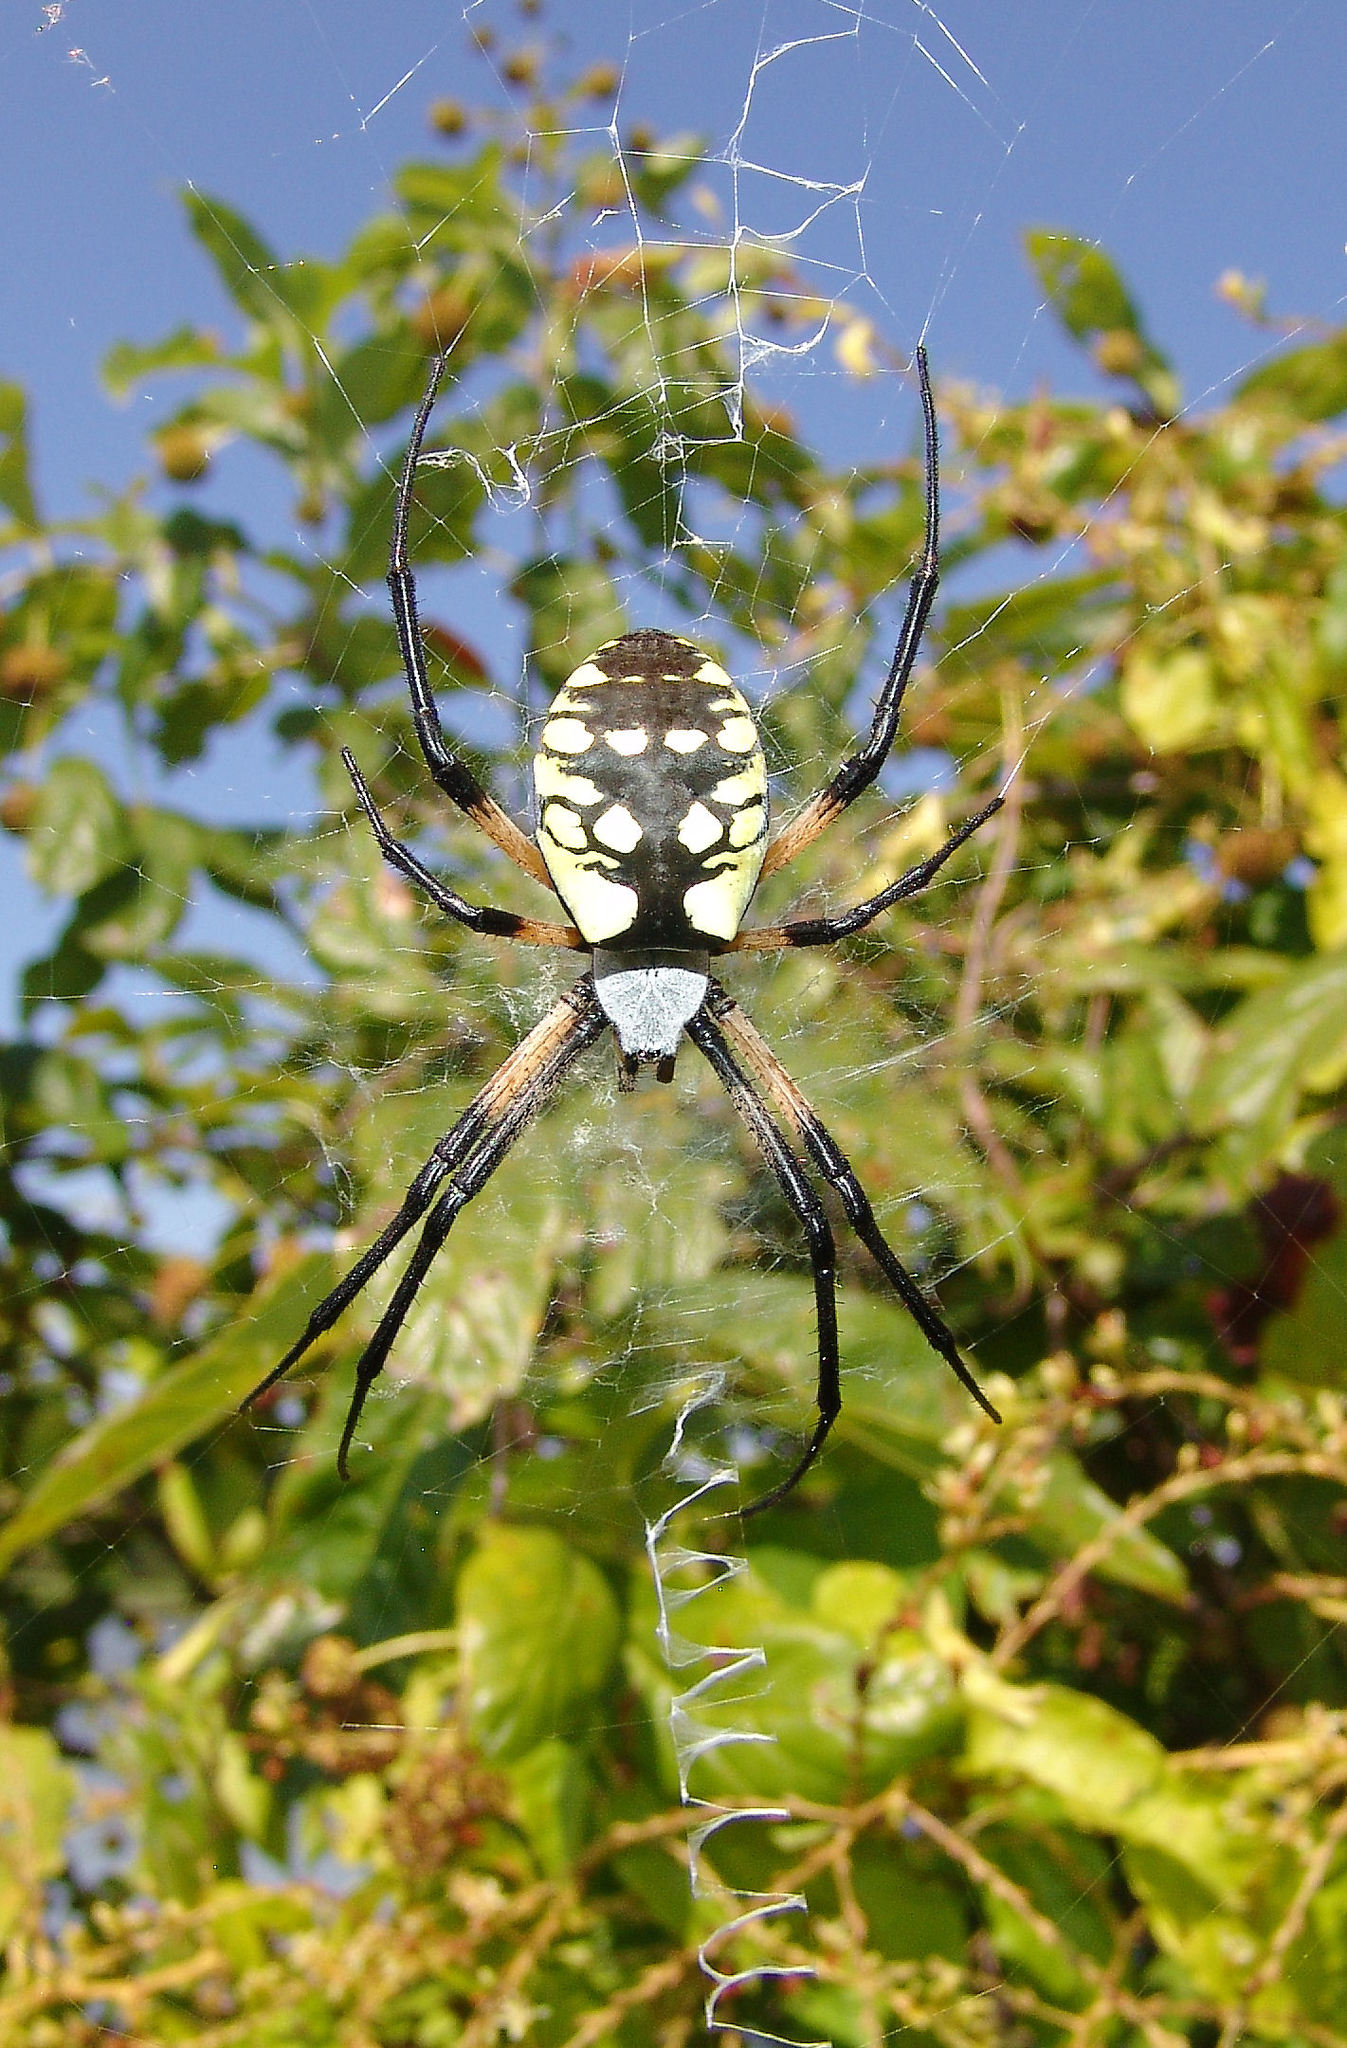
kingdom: Animalia
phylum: Arthropoda
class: Arachnida
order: Araneae
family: Araneidae
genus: Argiope
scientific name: Argiope aurantia
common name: Orb weavers
